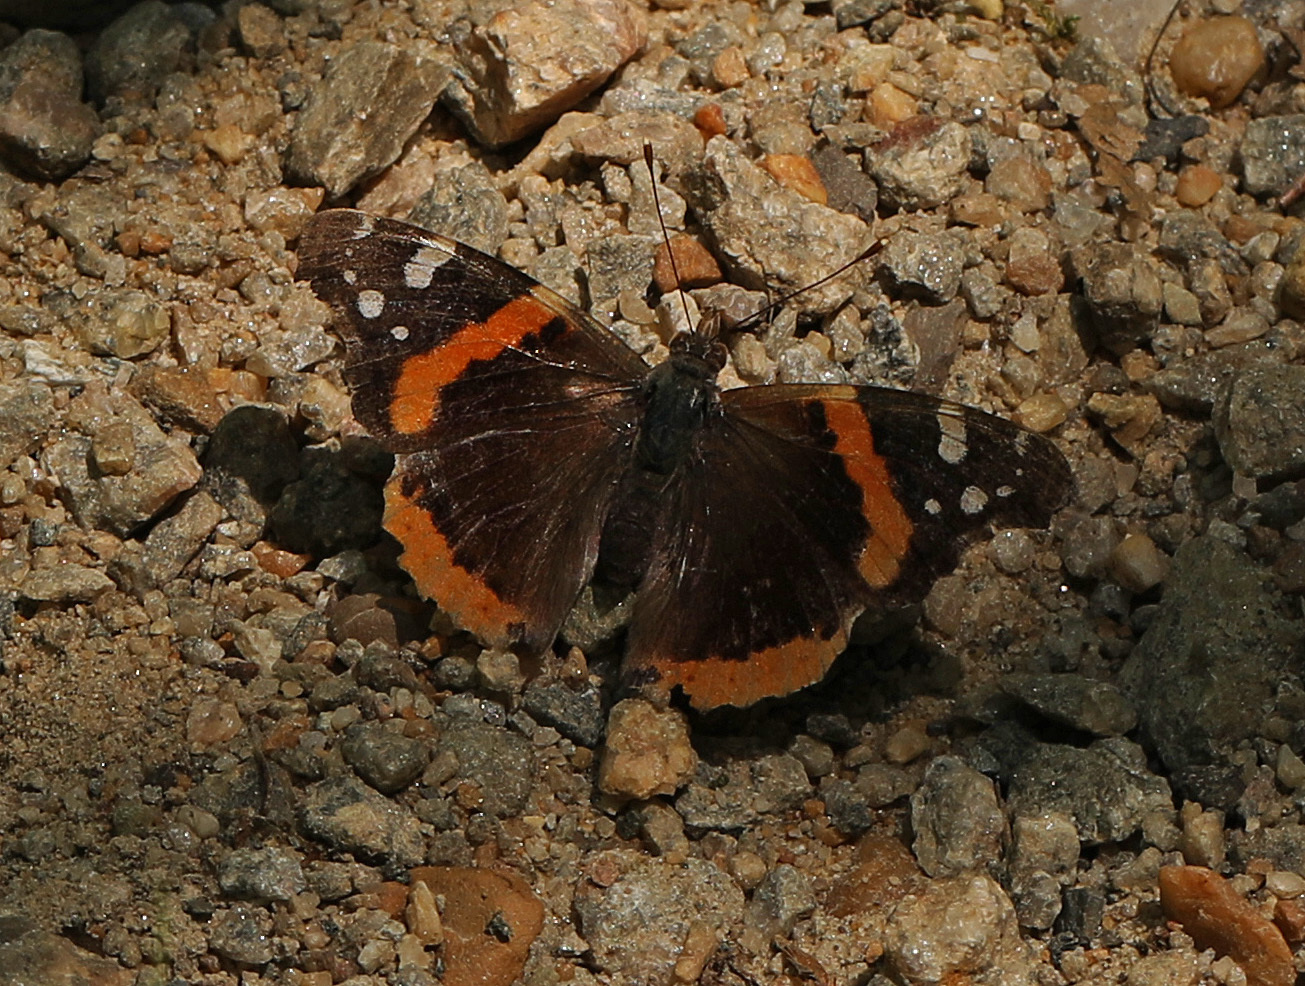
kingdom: Animalia
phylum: Arthropoda
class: Insecta
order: Lepidoptera
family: Nymphalidae
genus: Vanessa
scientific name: Vanessa atalanta
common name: Red admiral
